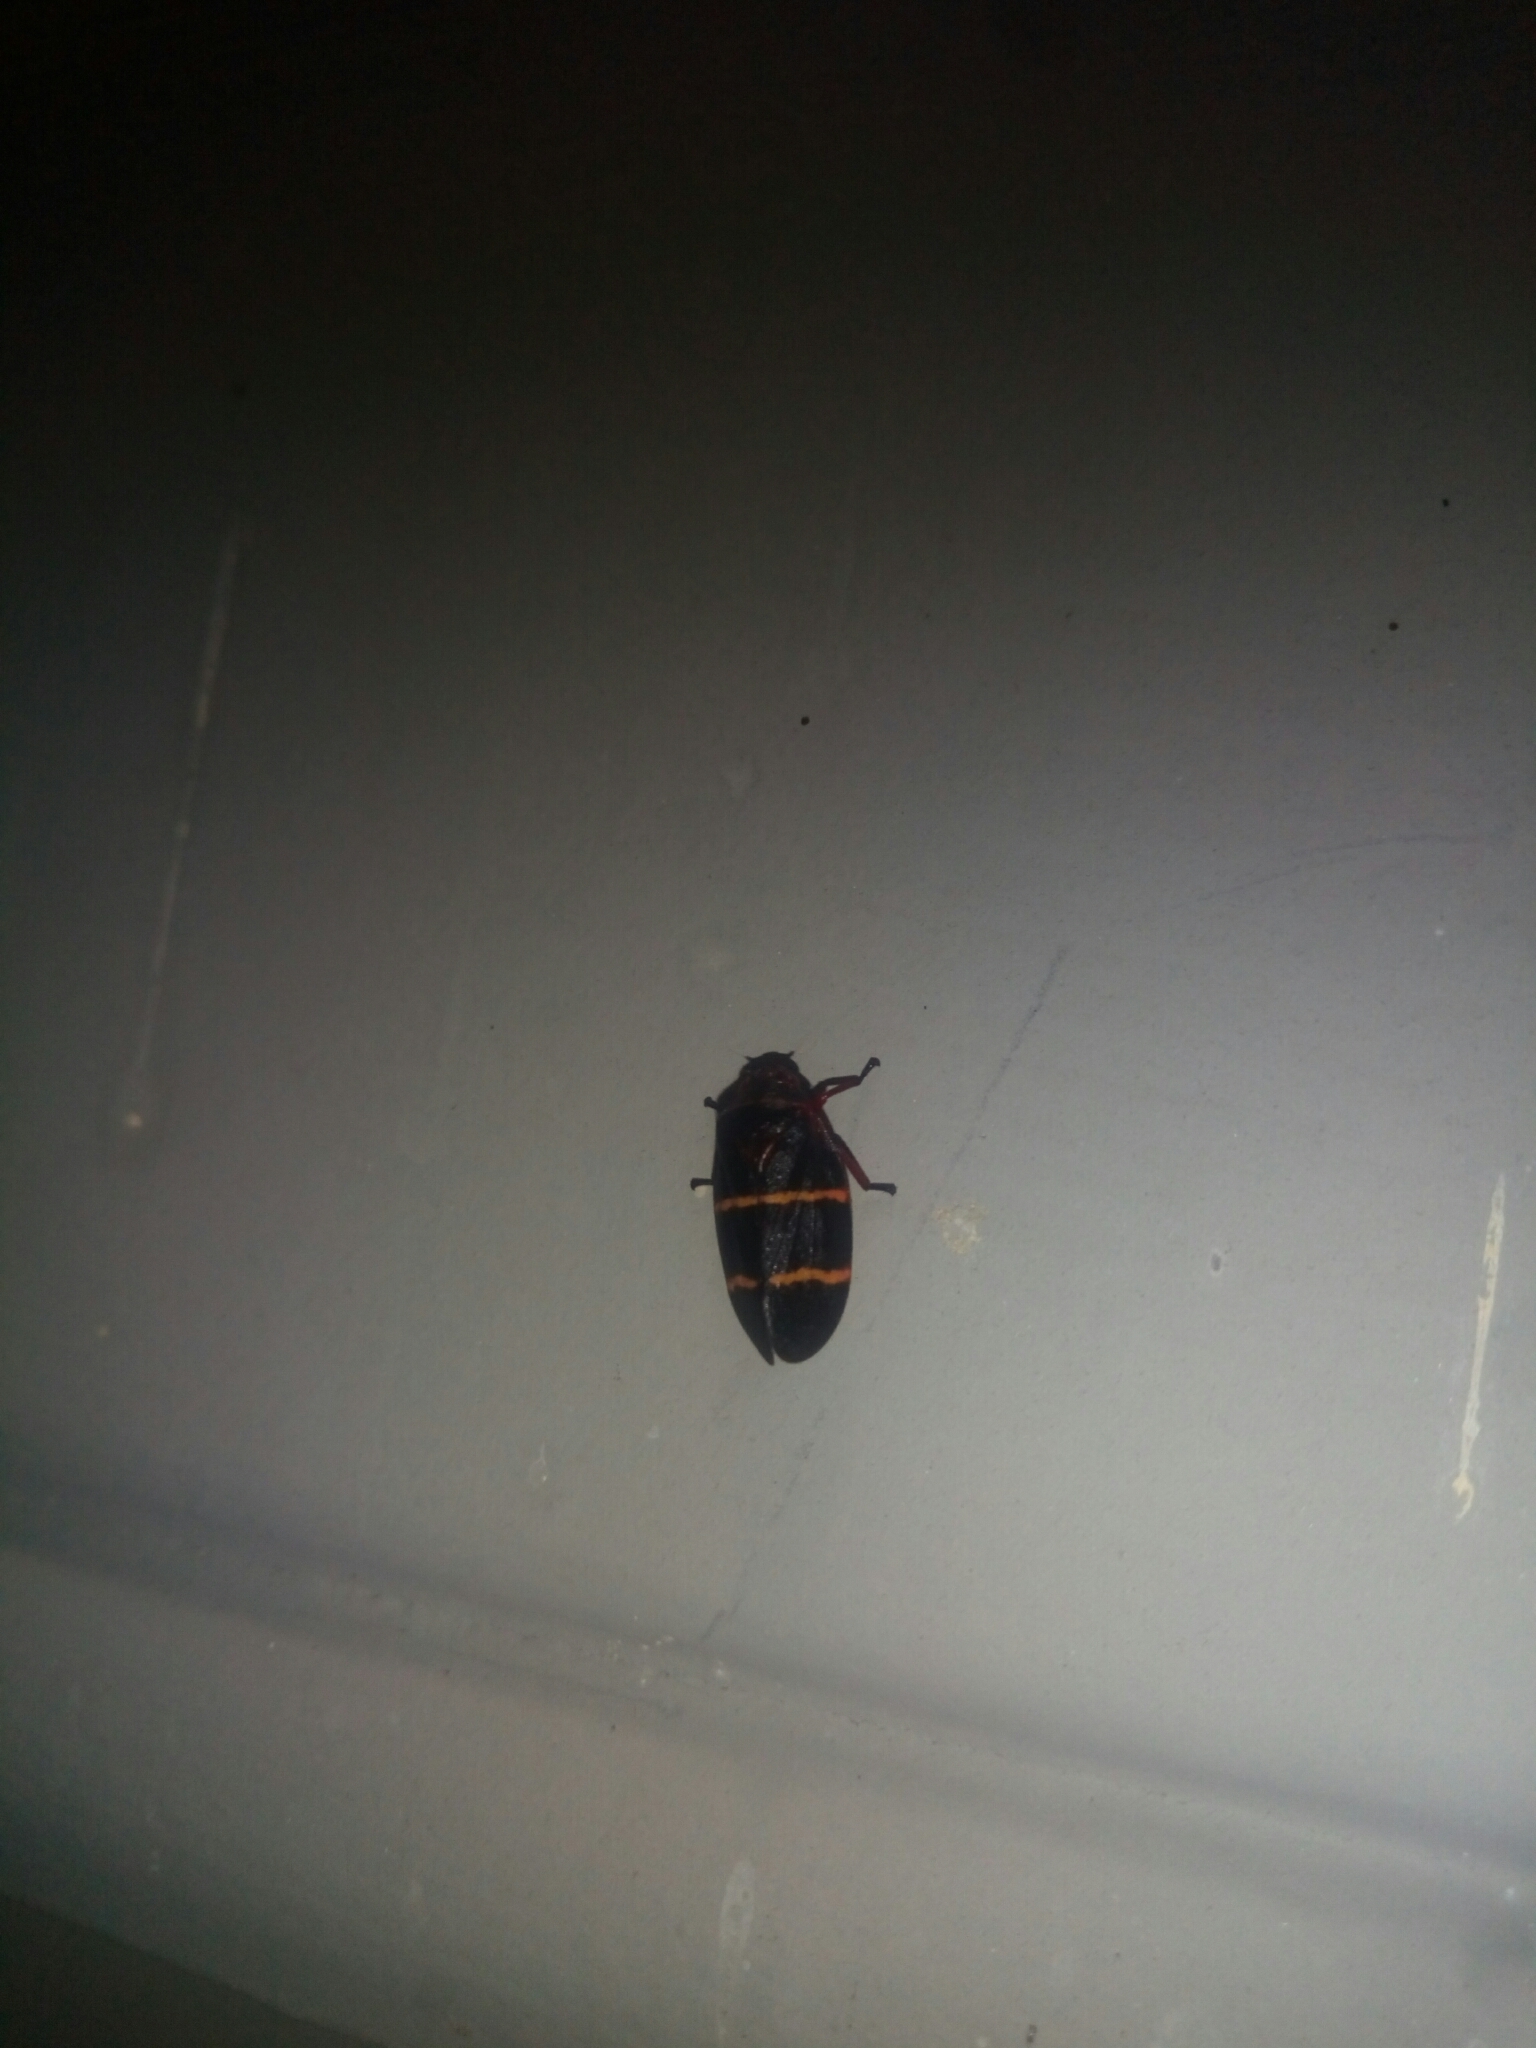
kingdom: Animalia
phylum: Arthropoda
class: Insecta
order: Hemiptera
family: Cercopidae
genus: Prosapia
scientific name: Prosapia bicincta
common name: Twolined spittlebug
